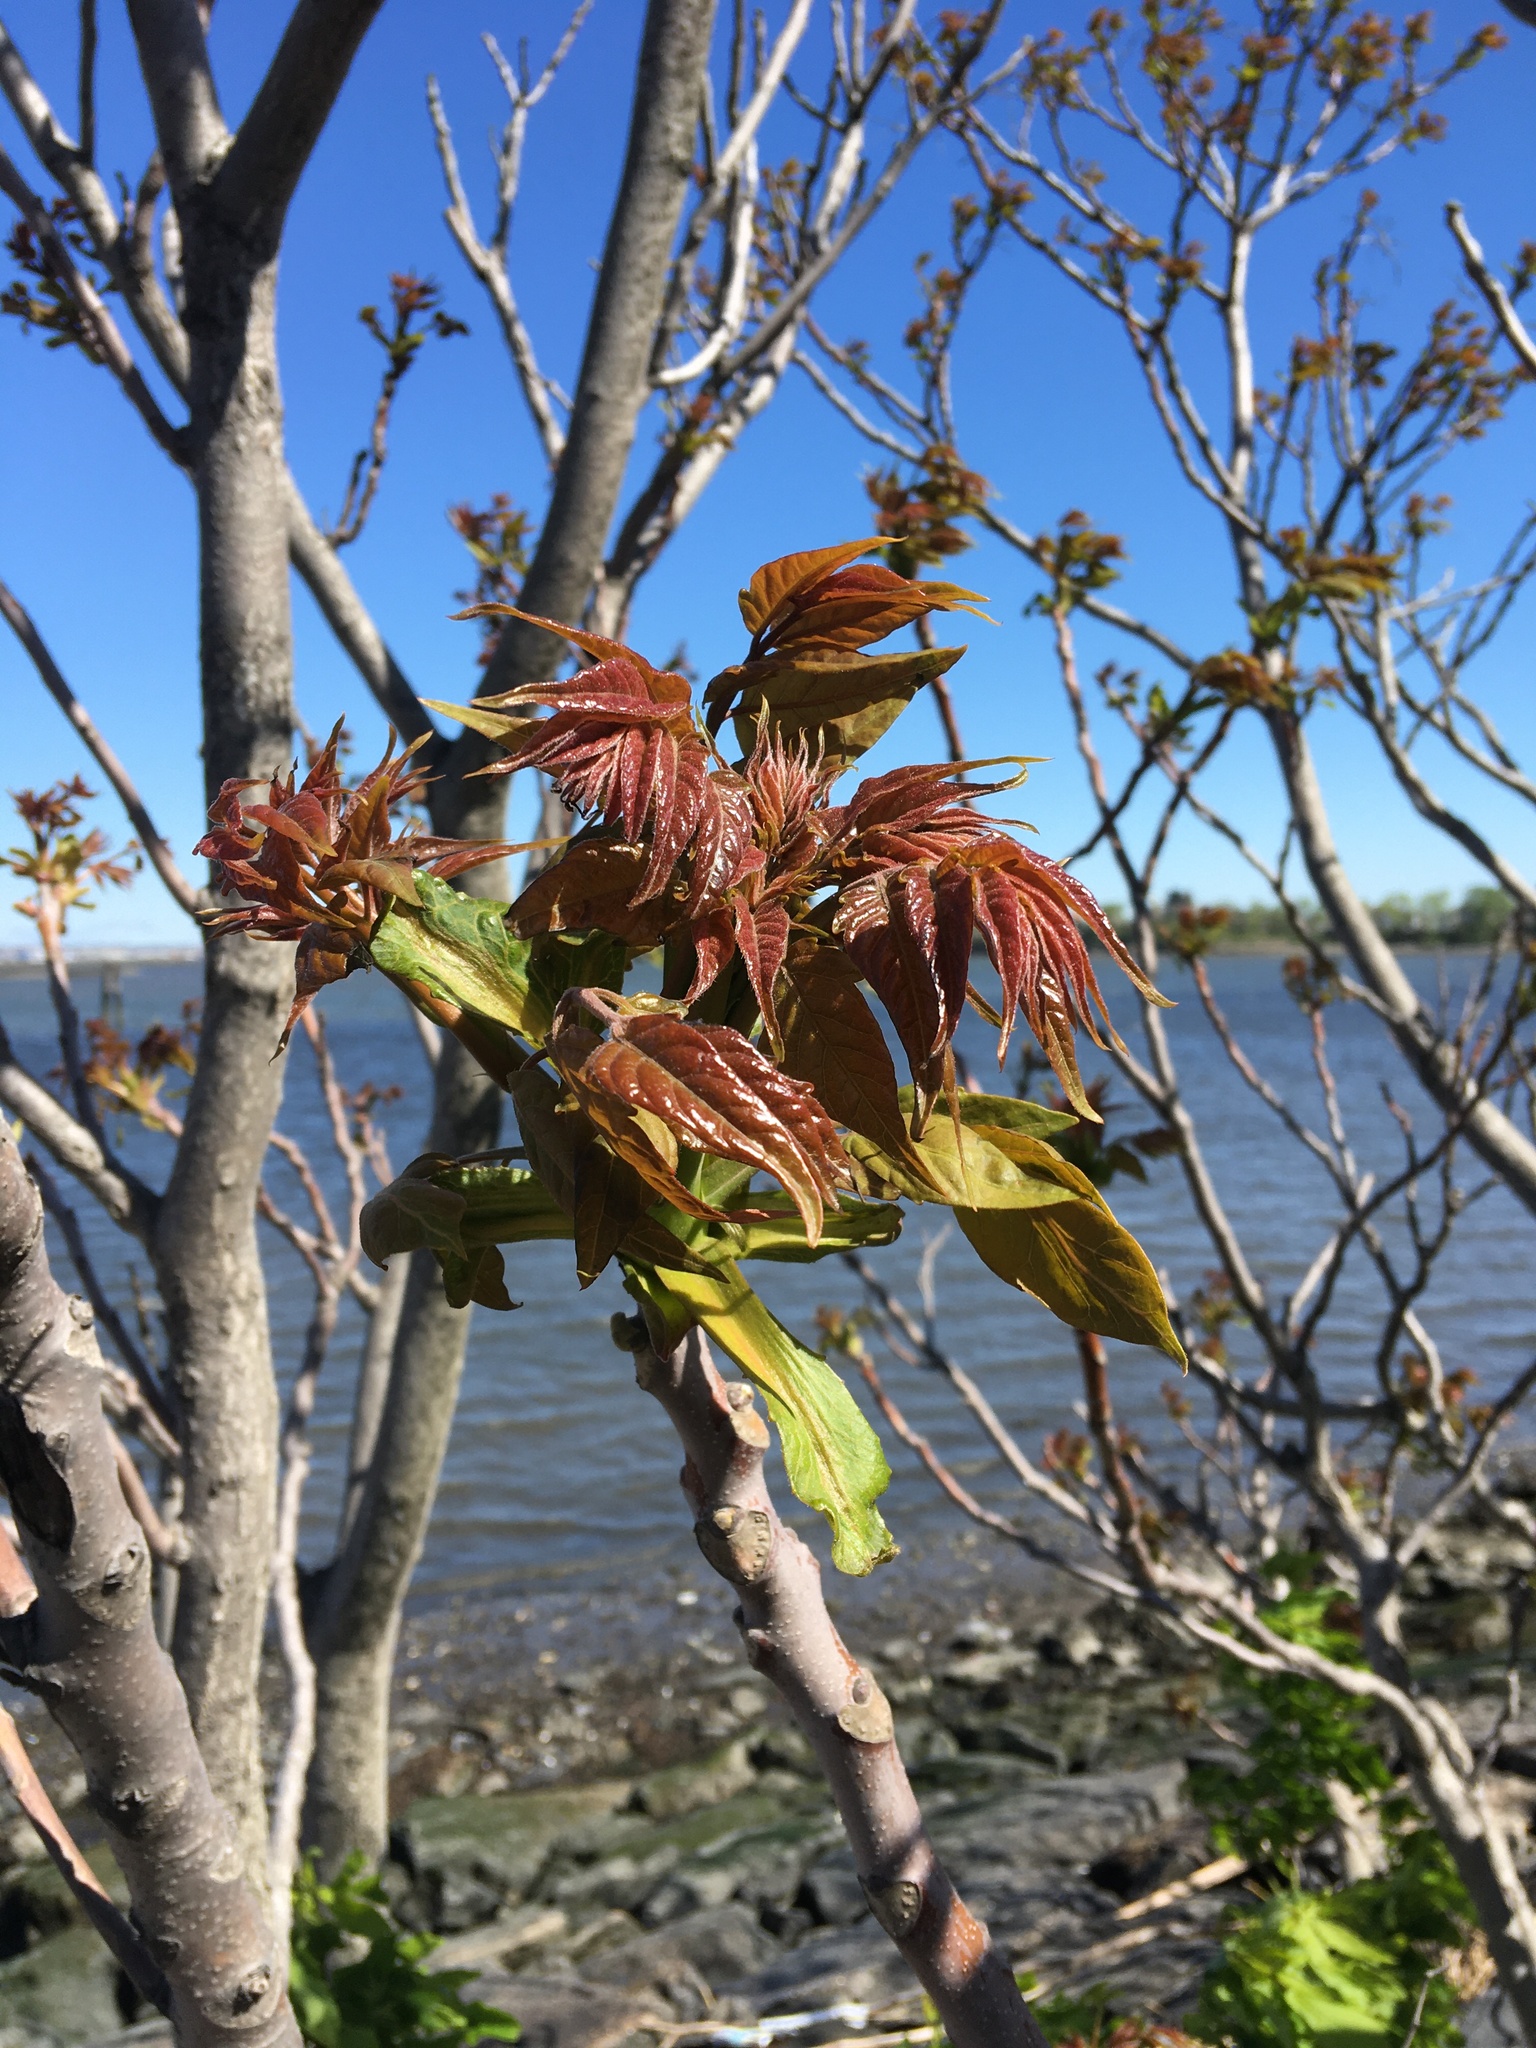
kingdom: Plantae
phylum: Tracheophyta
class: Magnoliopsida
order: Sapindales
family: Simaroubaceae
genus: Ailanthus
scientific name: Ailanthus altissima
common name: Tree-of-heaven
